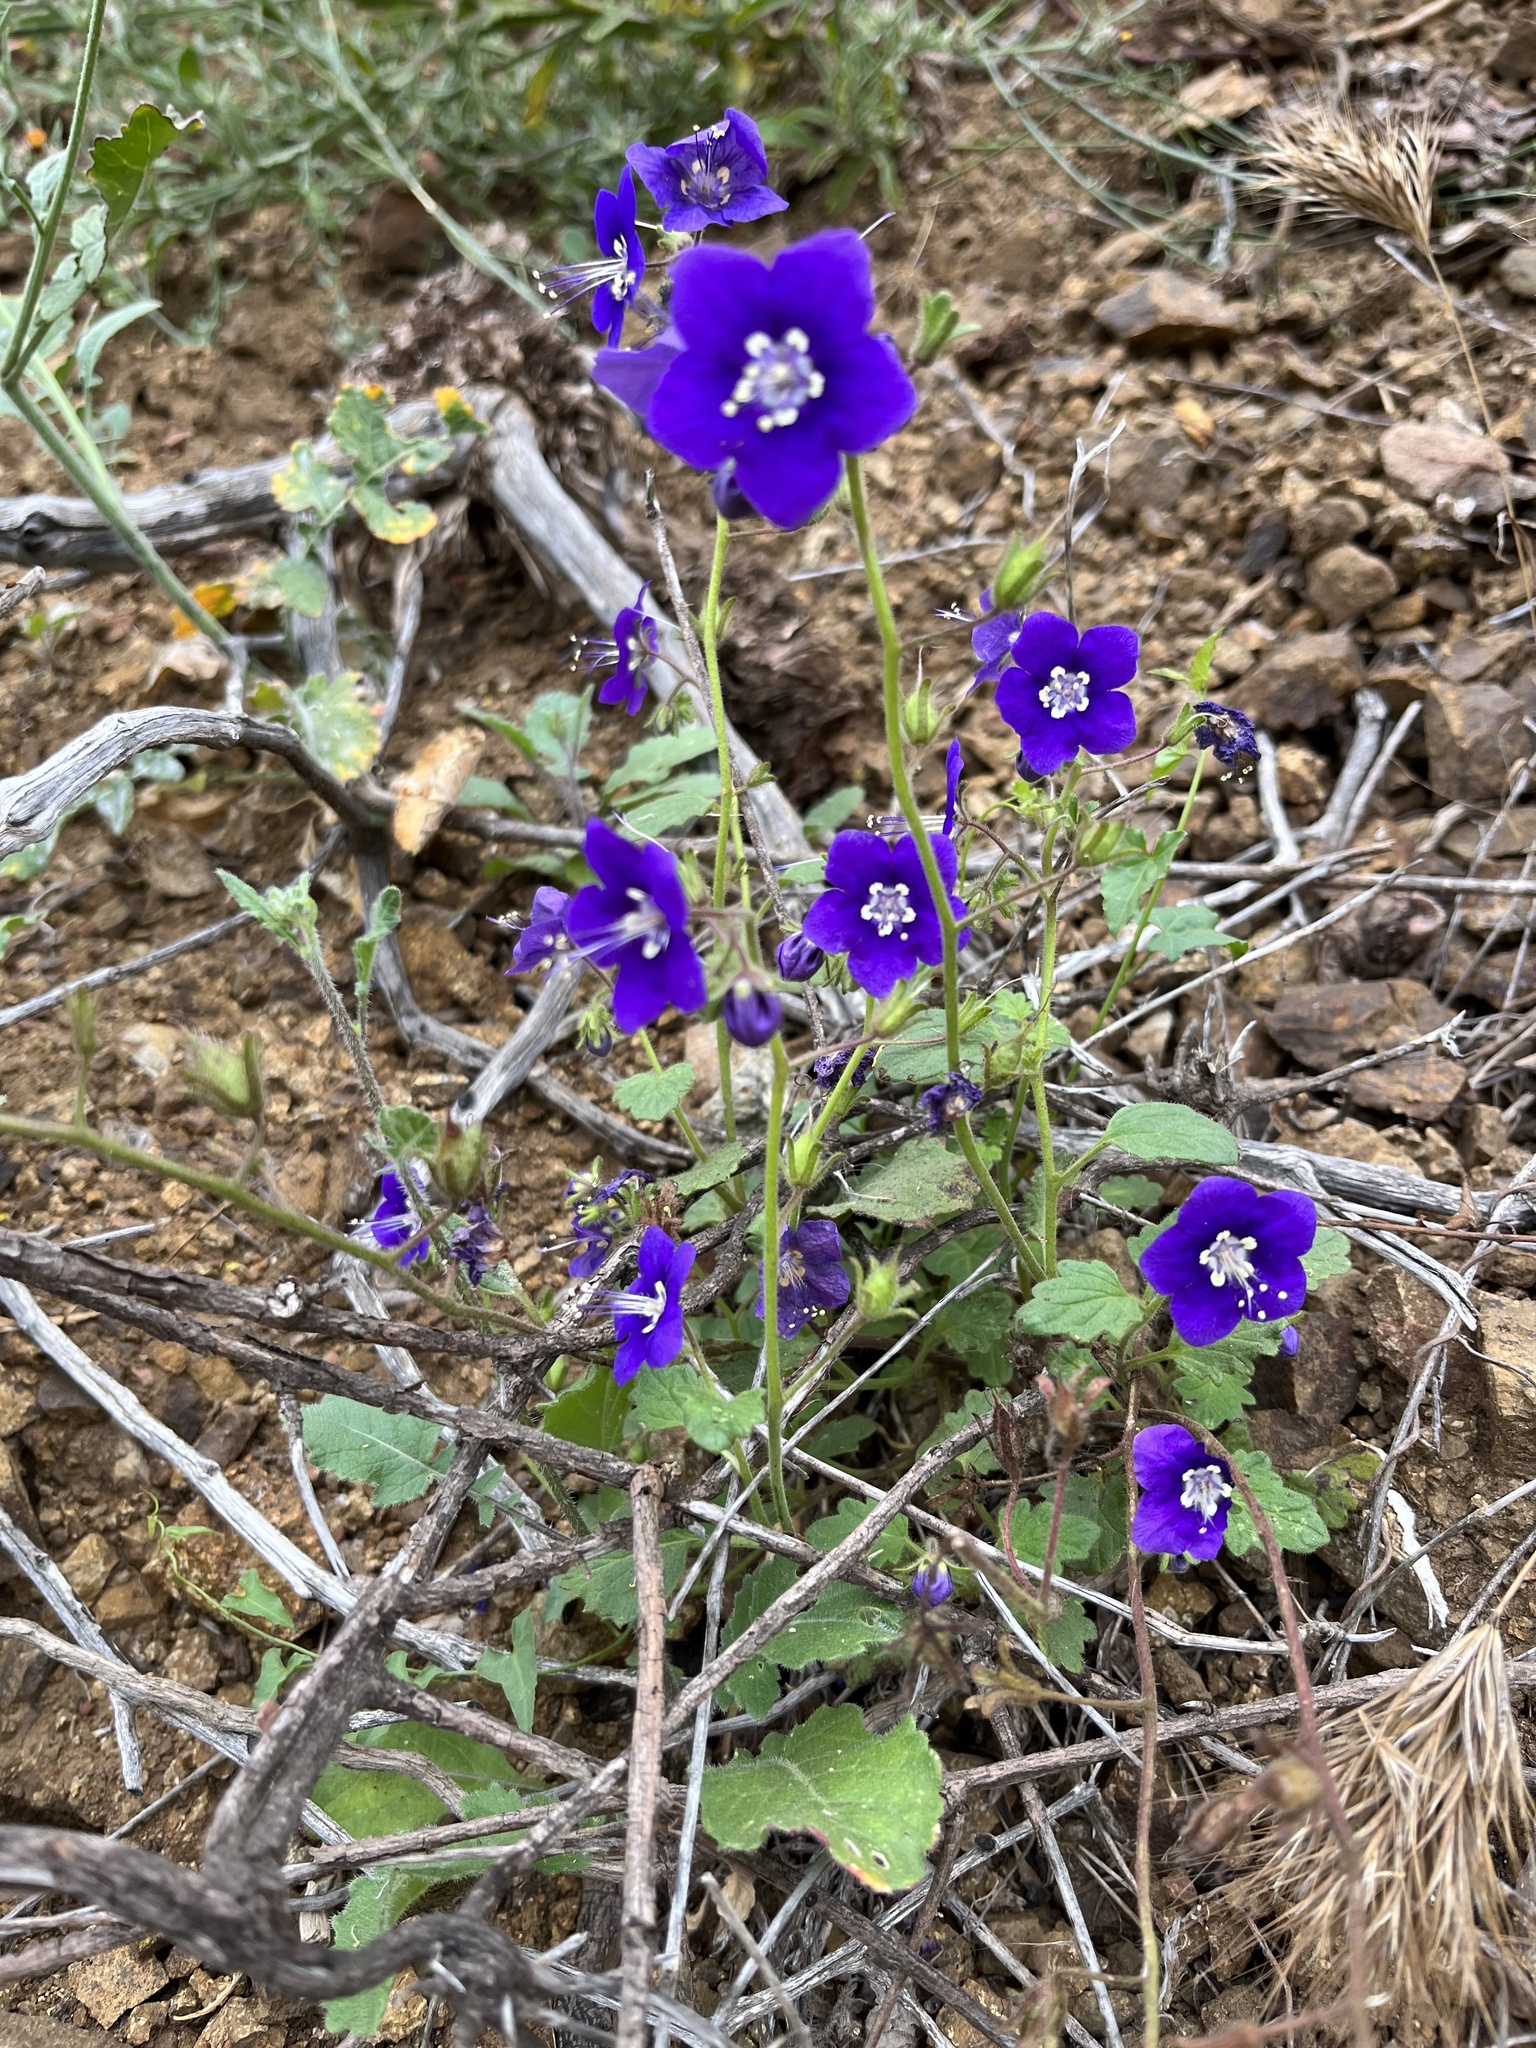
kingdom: Plantae
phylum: Tracheophyta
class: Magnoliopsida
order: Boraginales
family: Hydrophyllaceae
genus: Phacelia
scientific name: Phacelia parryi
